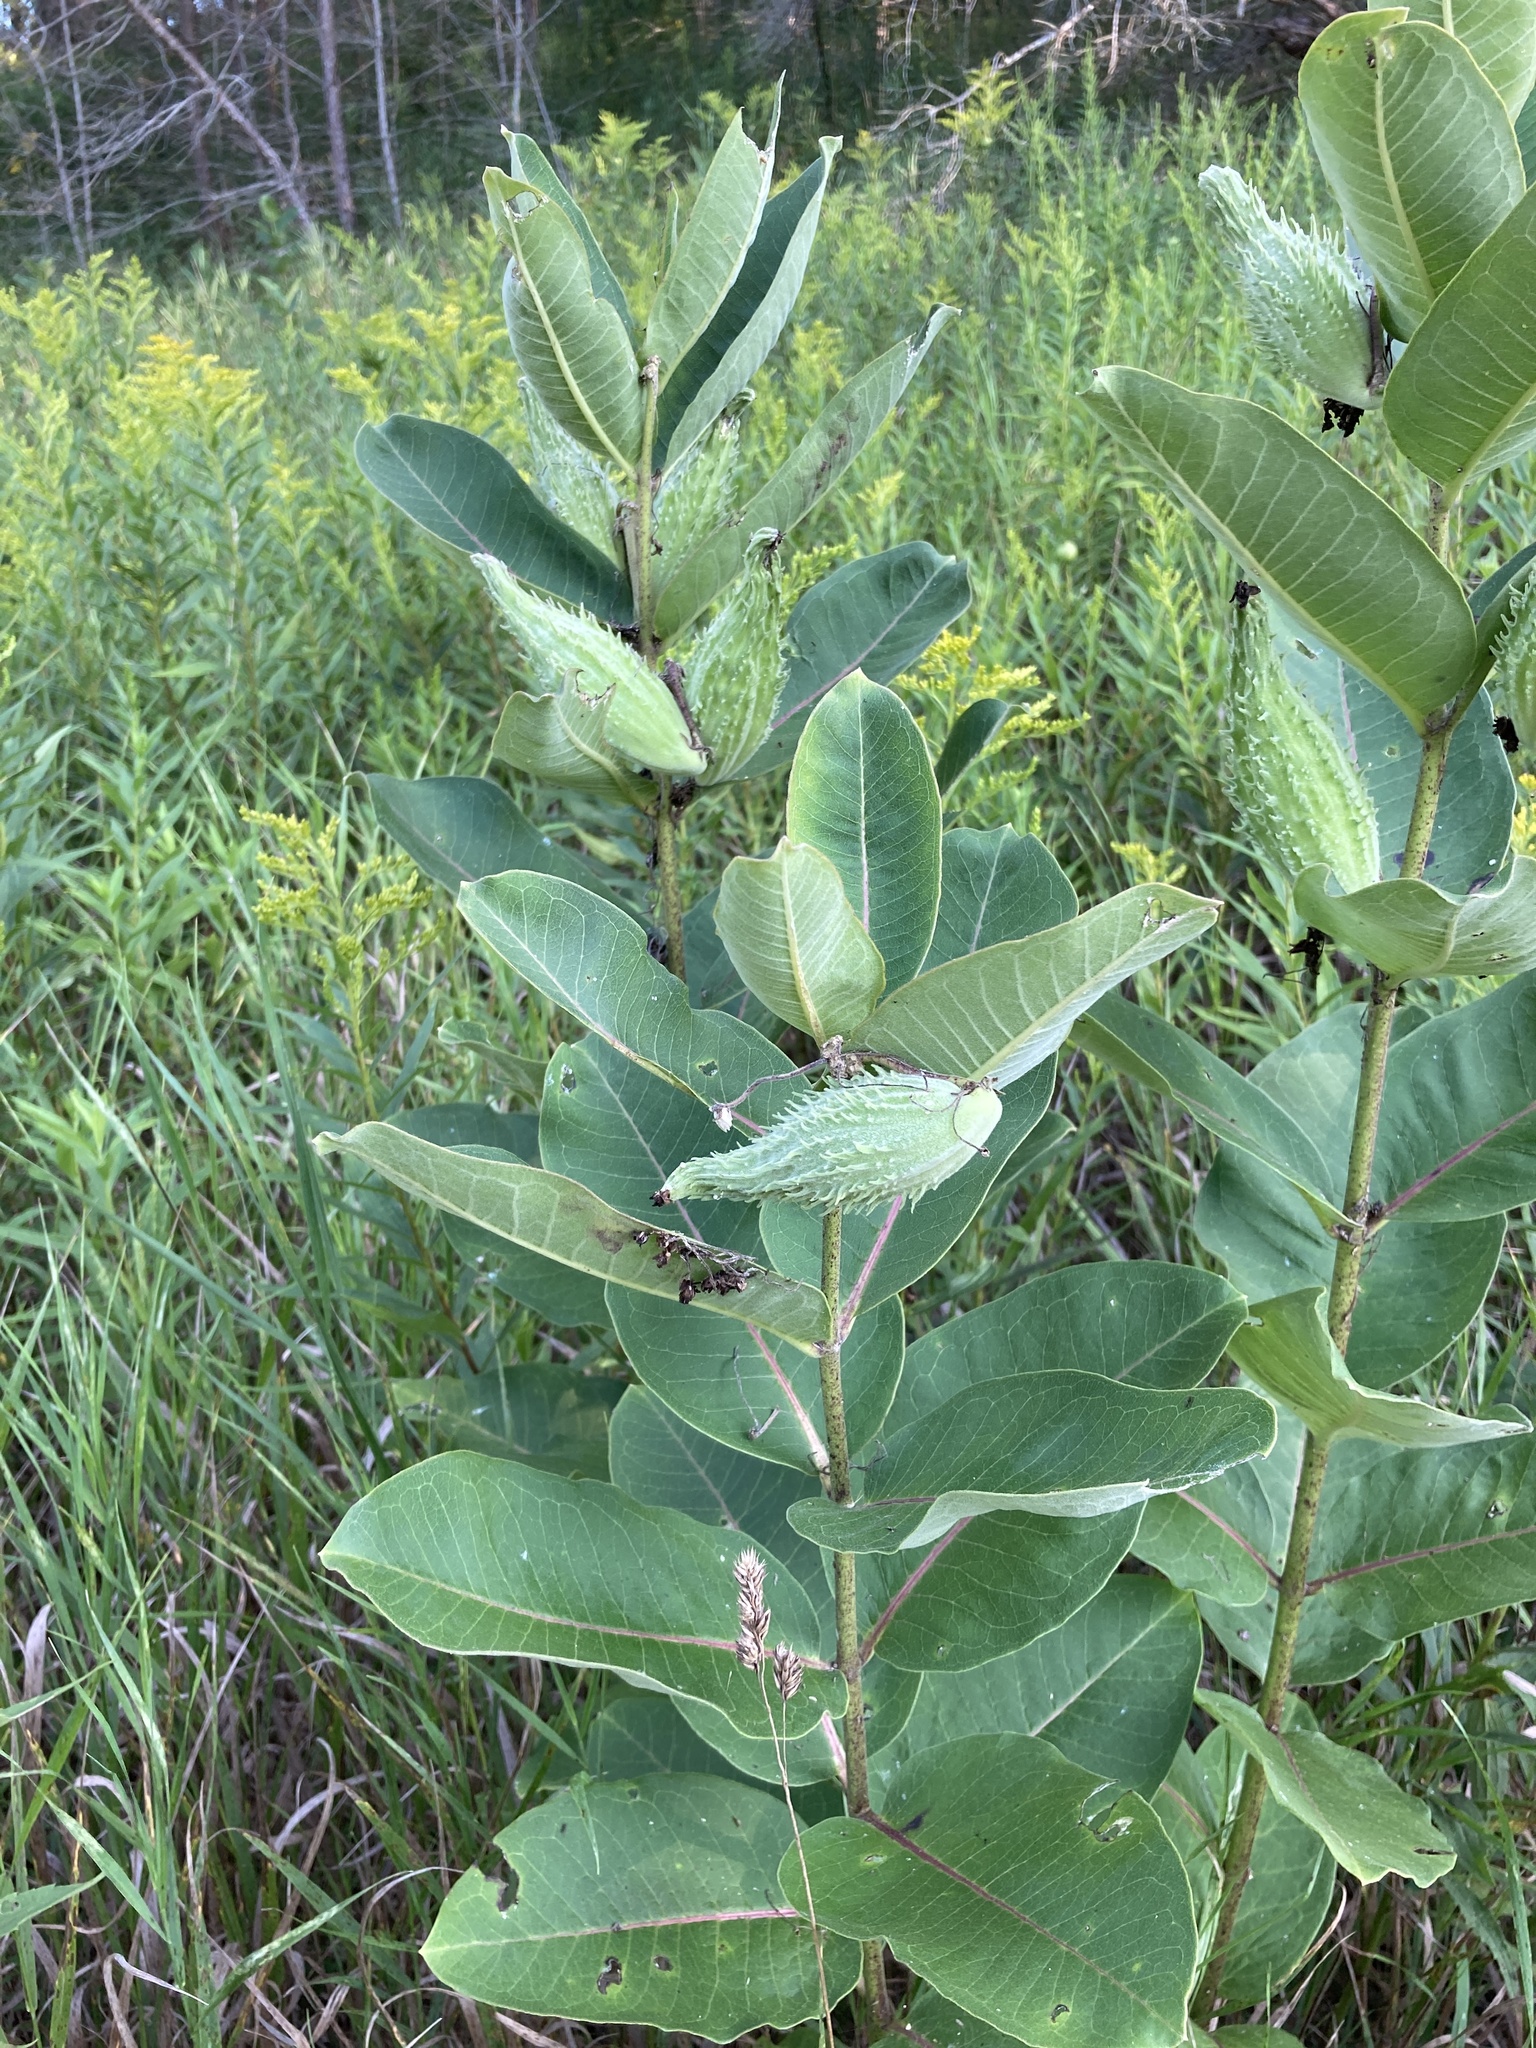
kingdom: Plantae
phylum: Tracheophyta
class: Magnoliopsida
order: Gentianales
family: Apocynaceae
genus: Asclepias
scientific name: Asclepias syriaca
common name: Common milkweed
